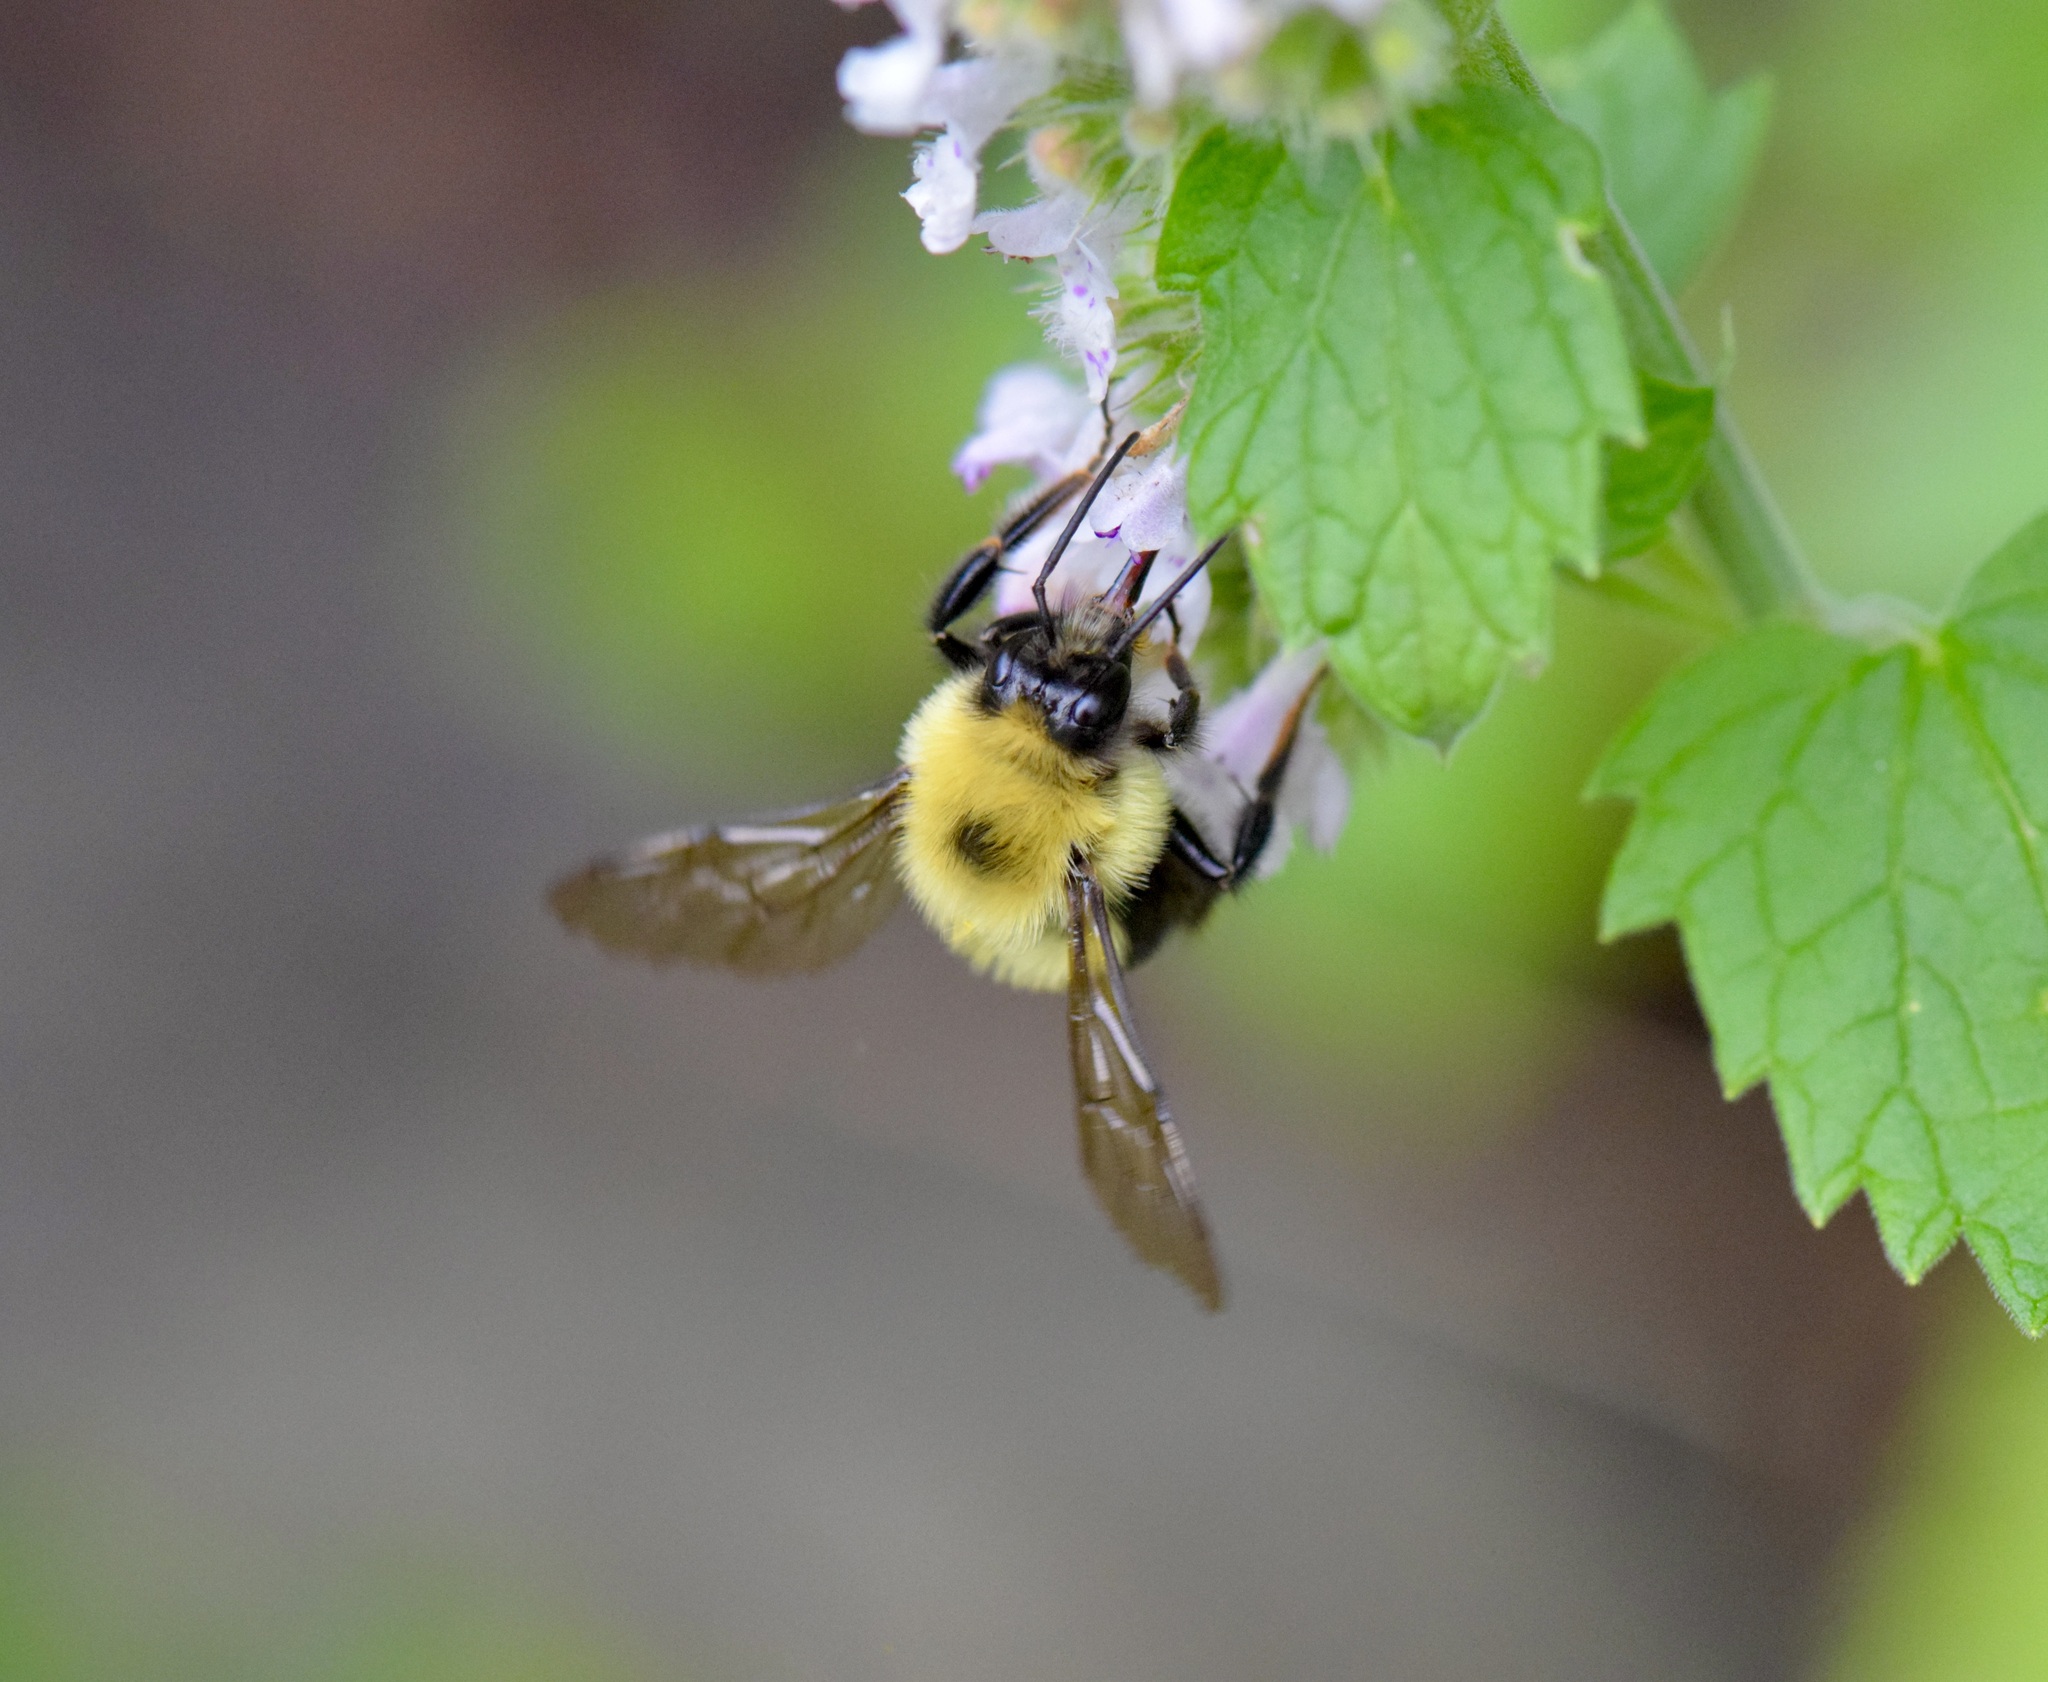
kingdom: Animalia
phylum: Arthropoda
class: Insecta
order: Hymenoptera
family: Apidae
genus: Bombus
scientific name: Bombus bimaculatus
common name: Two-spotted bumble bee
